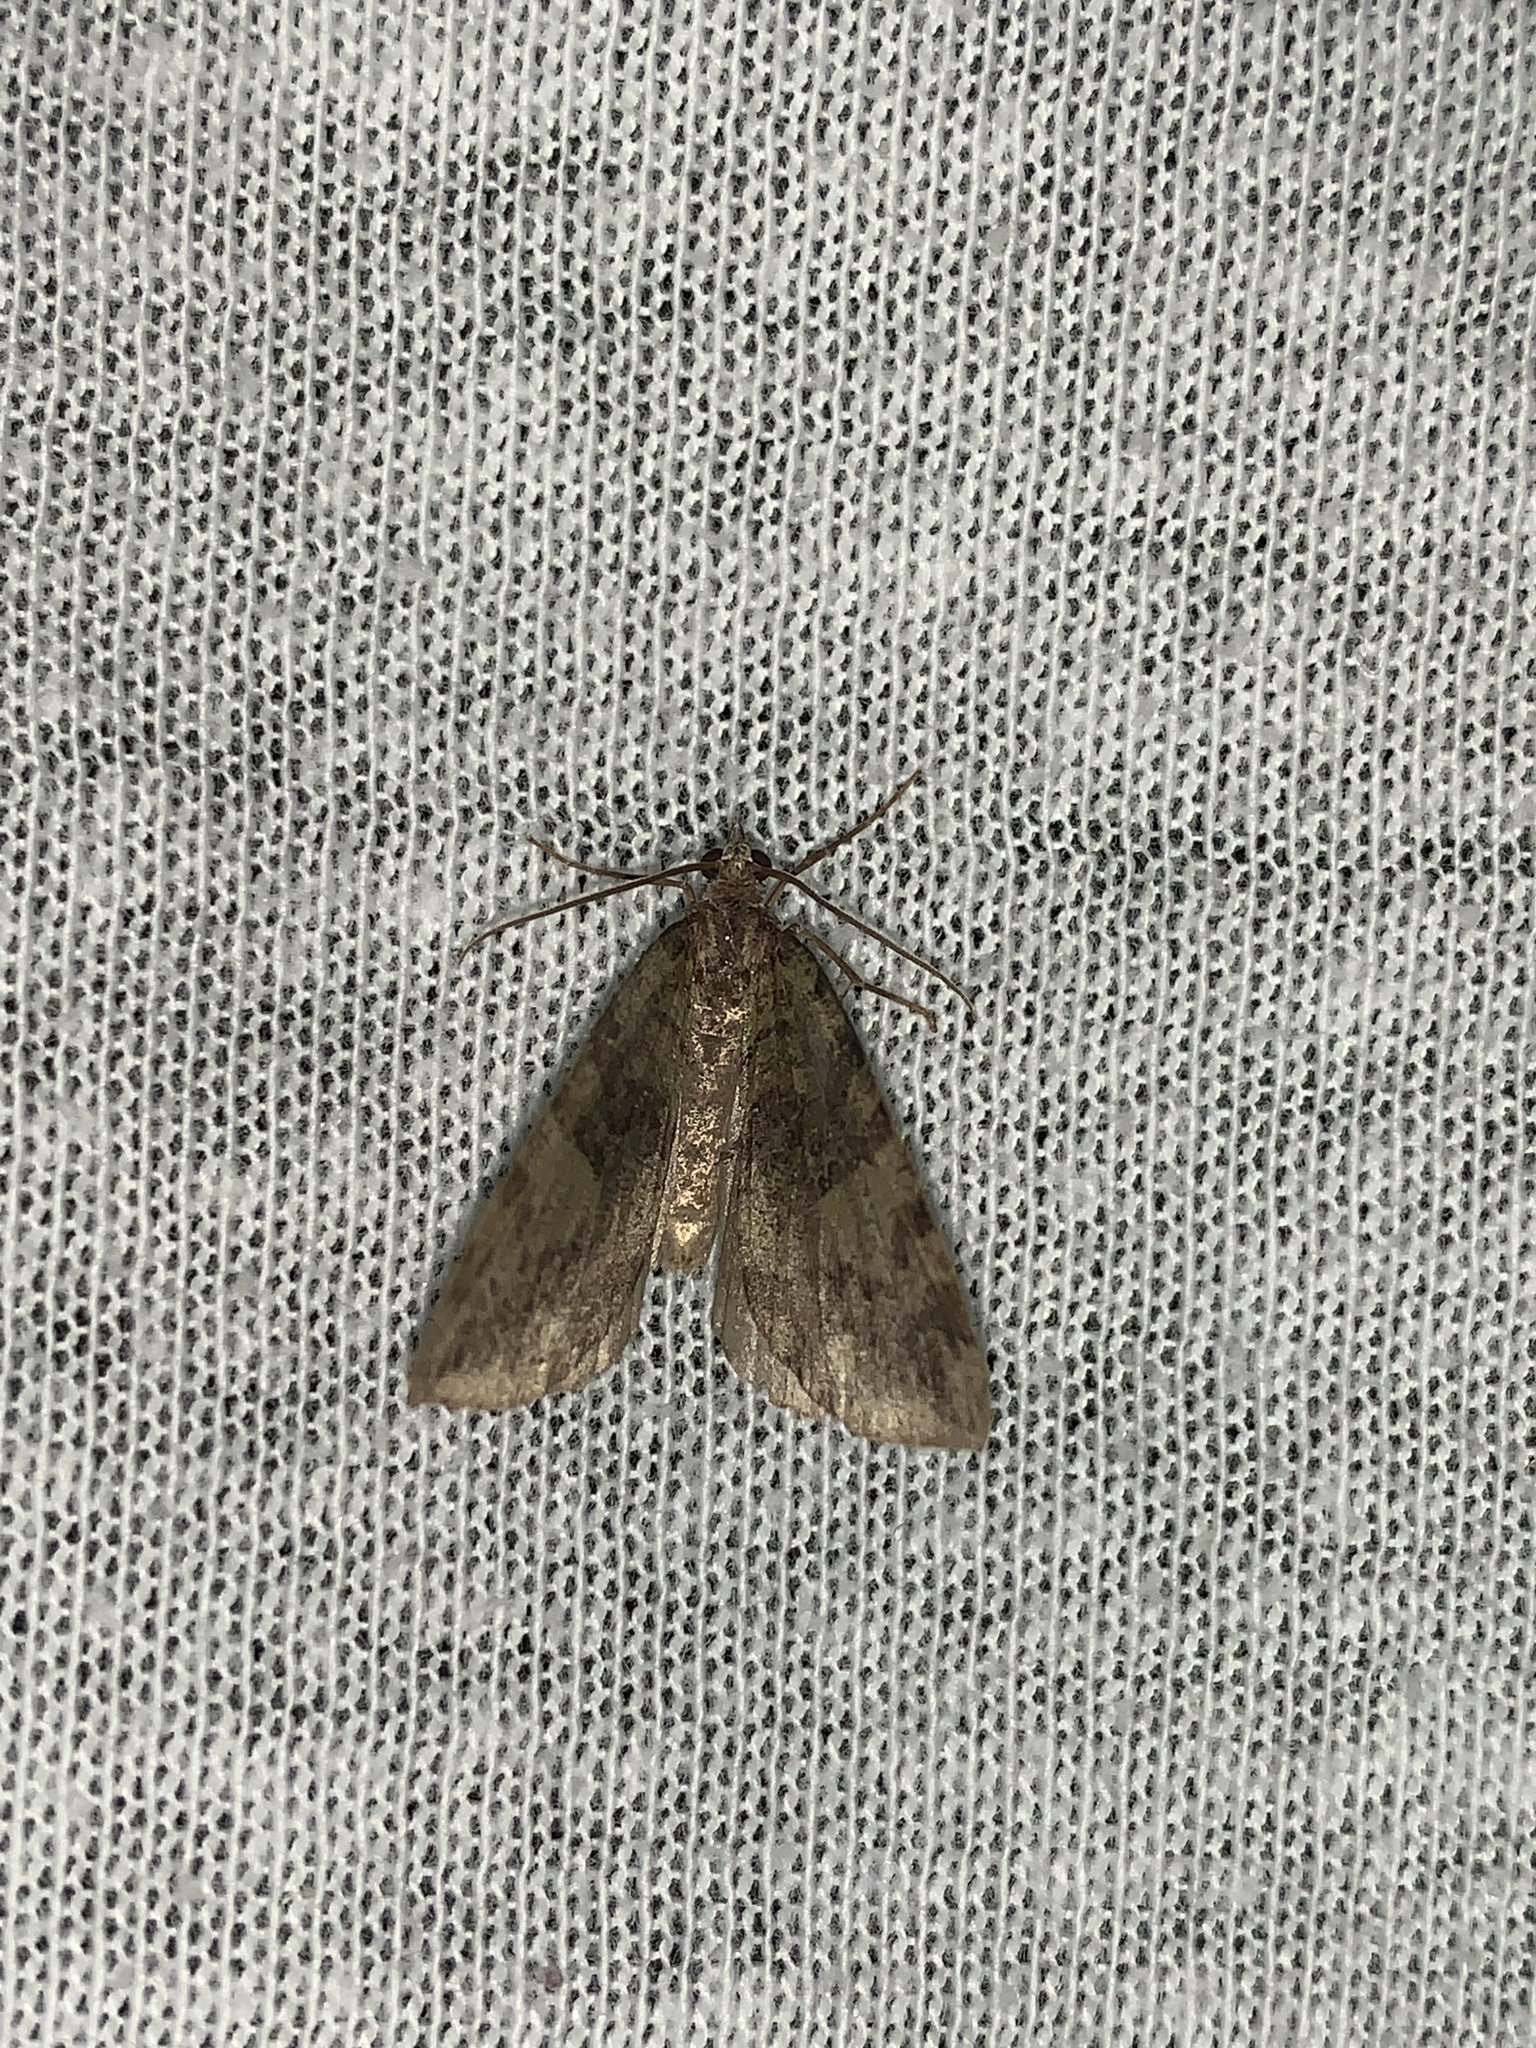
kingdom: Animalia
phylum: Arthropoda
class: Insecta
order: Lepidoptera
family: Geometridae
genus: Hydriomena
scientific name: Hydriomena furcata
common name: July highflyer
